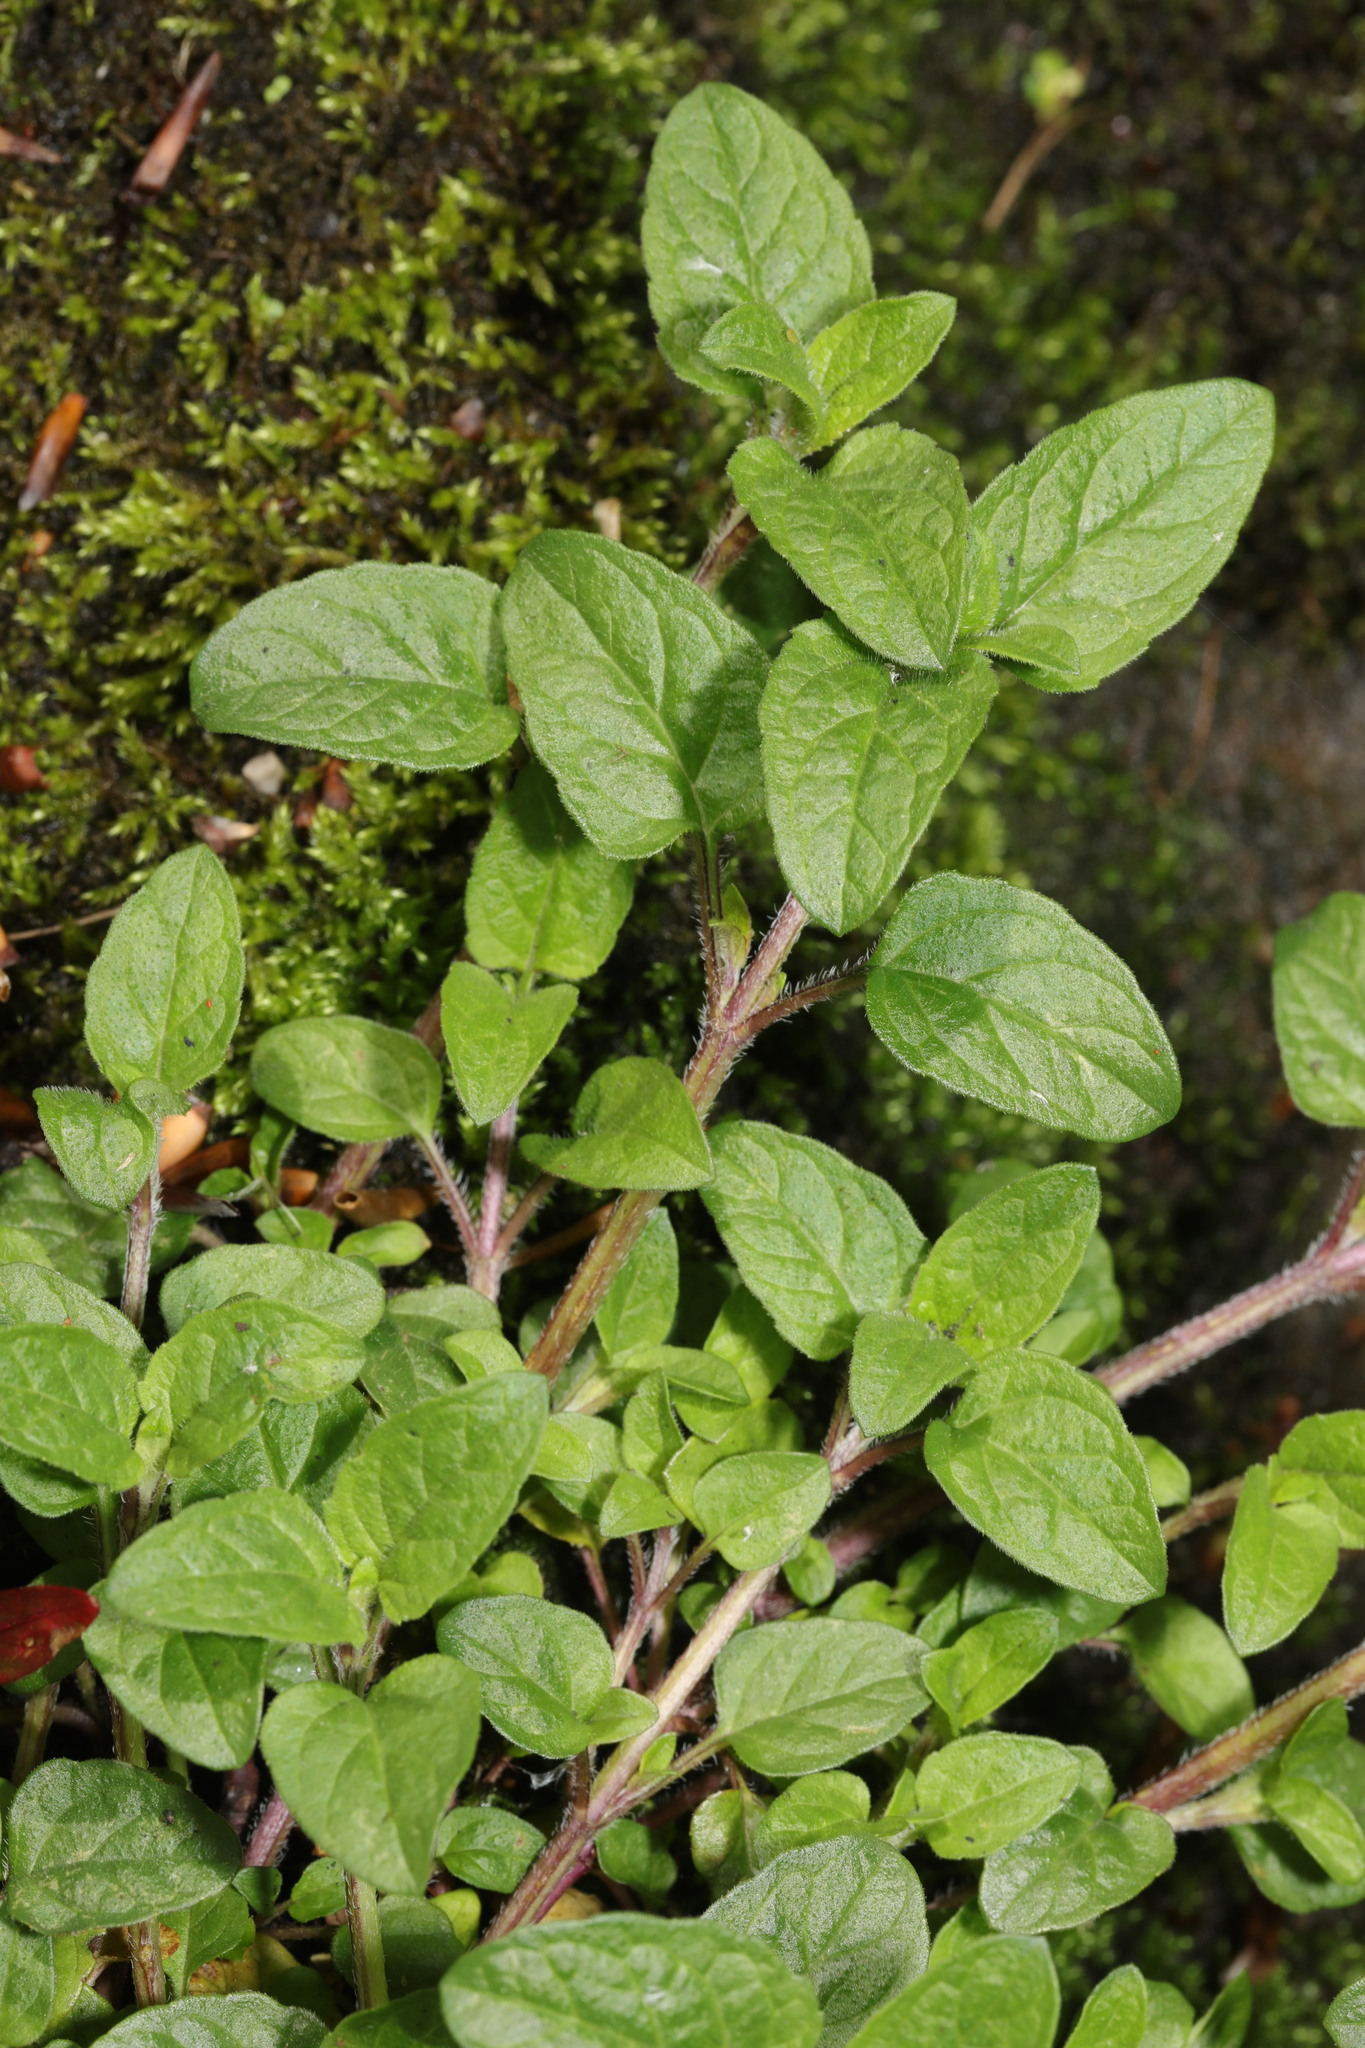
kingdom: Plantae
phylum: Tracheophyta
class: Magnoliopsida
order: Lamiales
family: Lamiaceae
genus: Prunella
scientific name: Prunella vulgaris
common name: Heal-all
